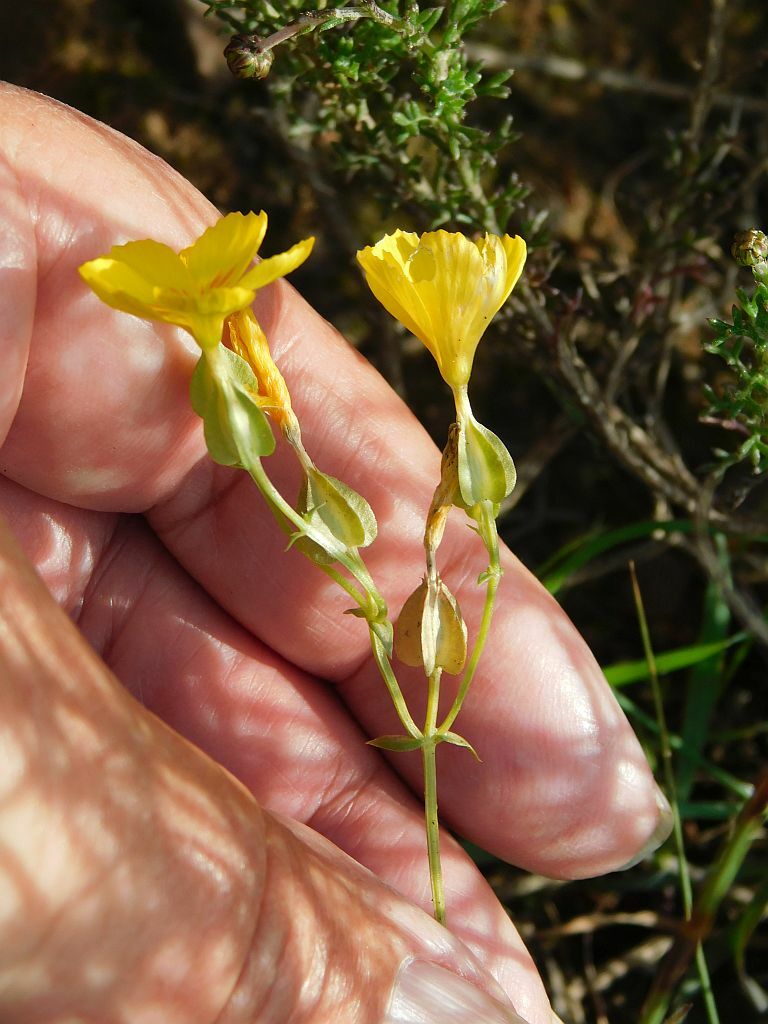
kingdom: Plantae
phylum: Tracheophyta
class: Magnoliopsida
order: Gentianales
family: Gentianaceae
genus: Sebaea
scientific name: Sebaea solaris
